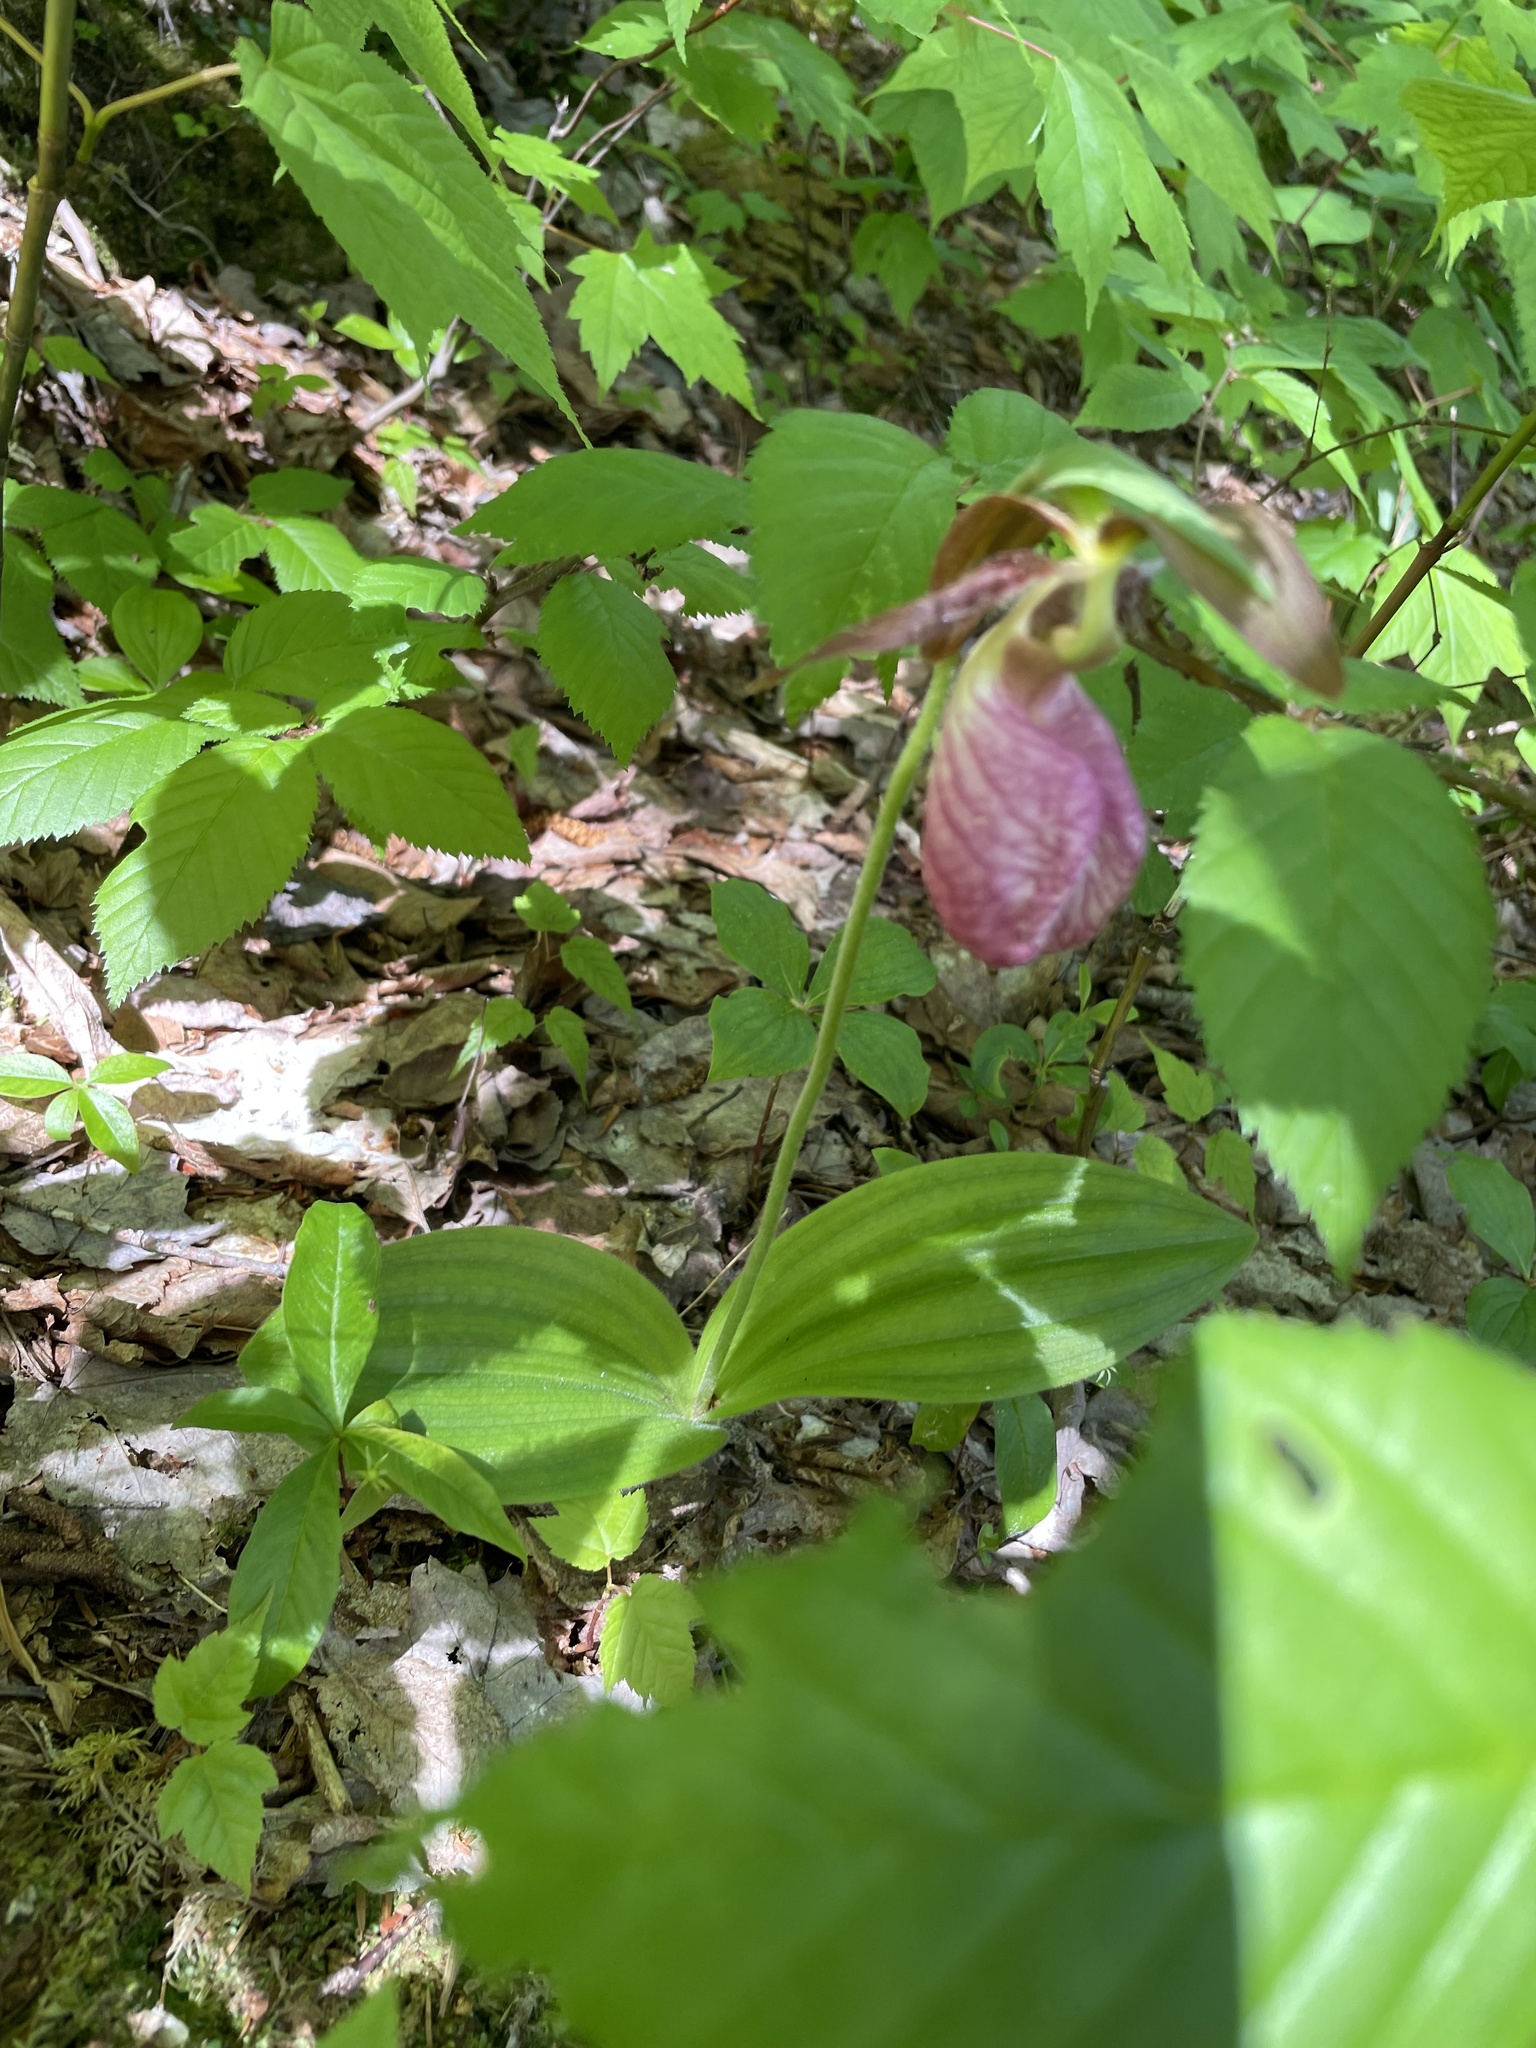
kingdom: Plantae
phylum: Tracheophyta
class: Liliopsida
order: Asparagales
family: Orchidaceae
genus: Cypripedium
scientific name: Cypripedium acaule
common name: Pink lady's-slipper
